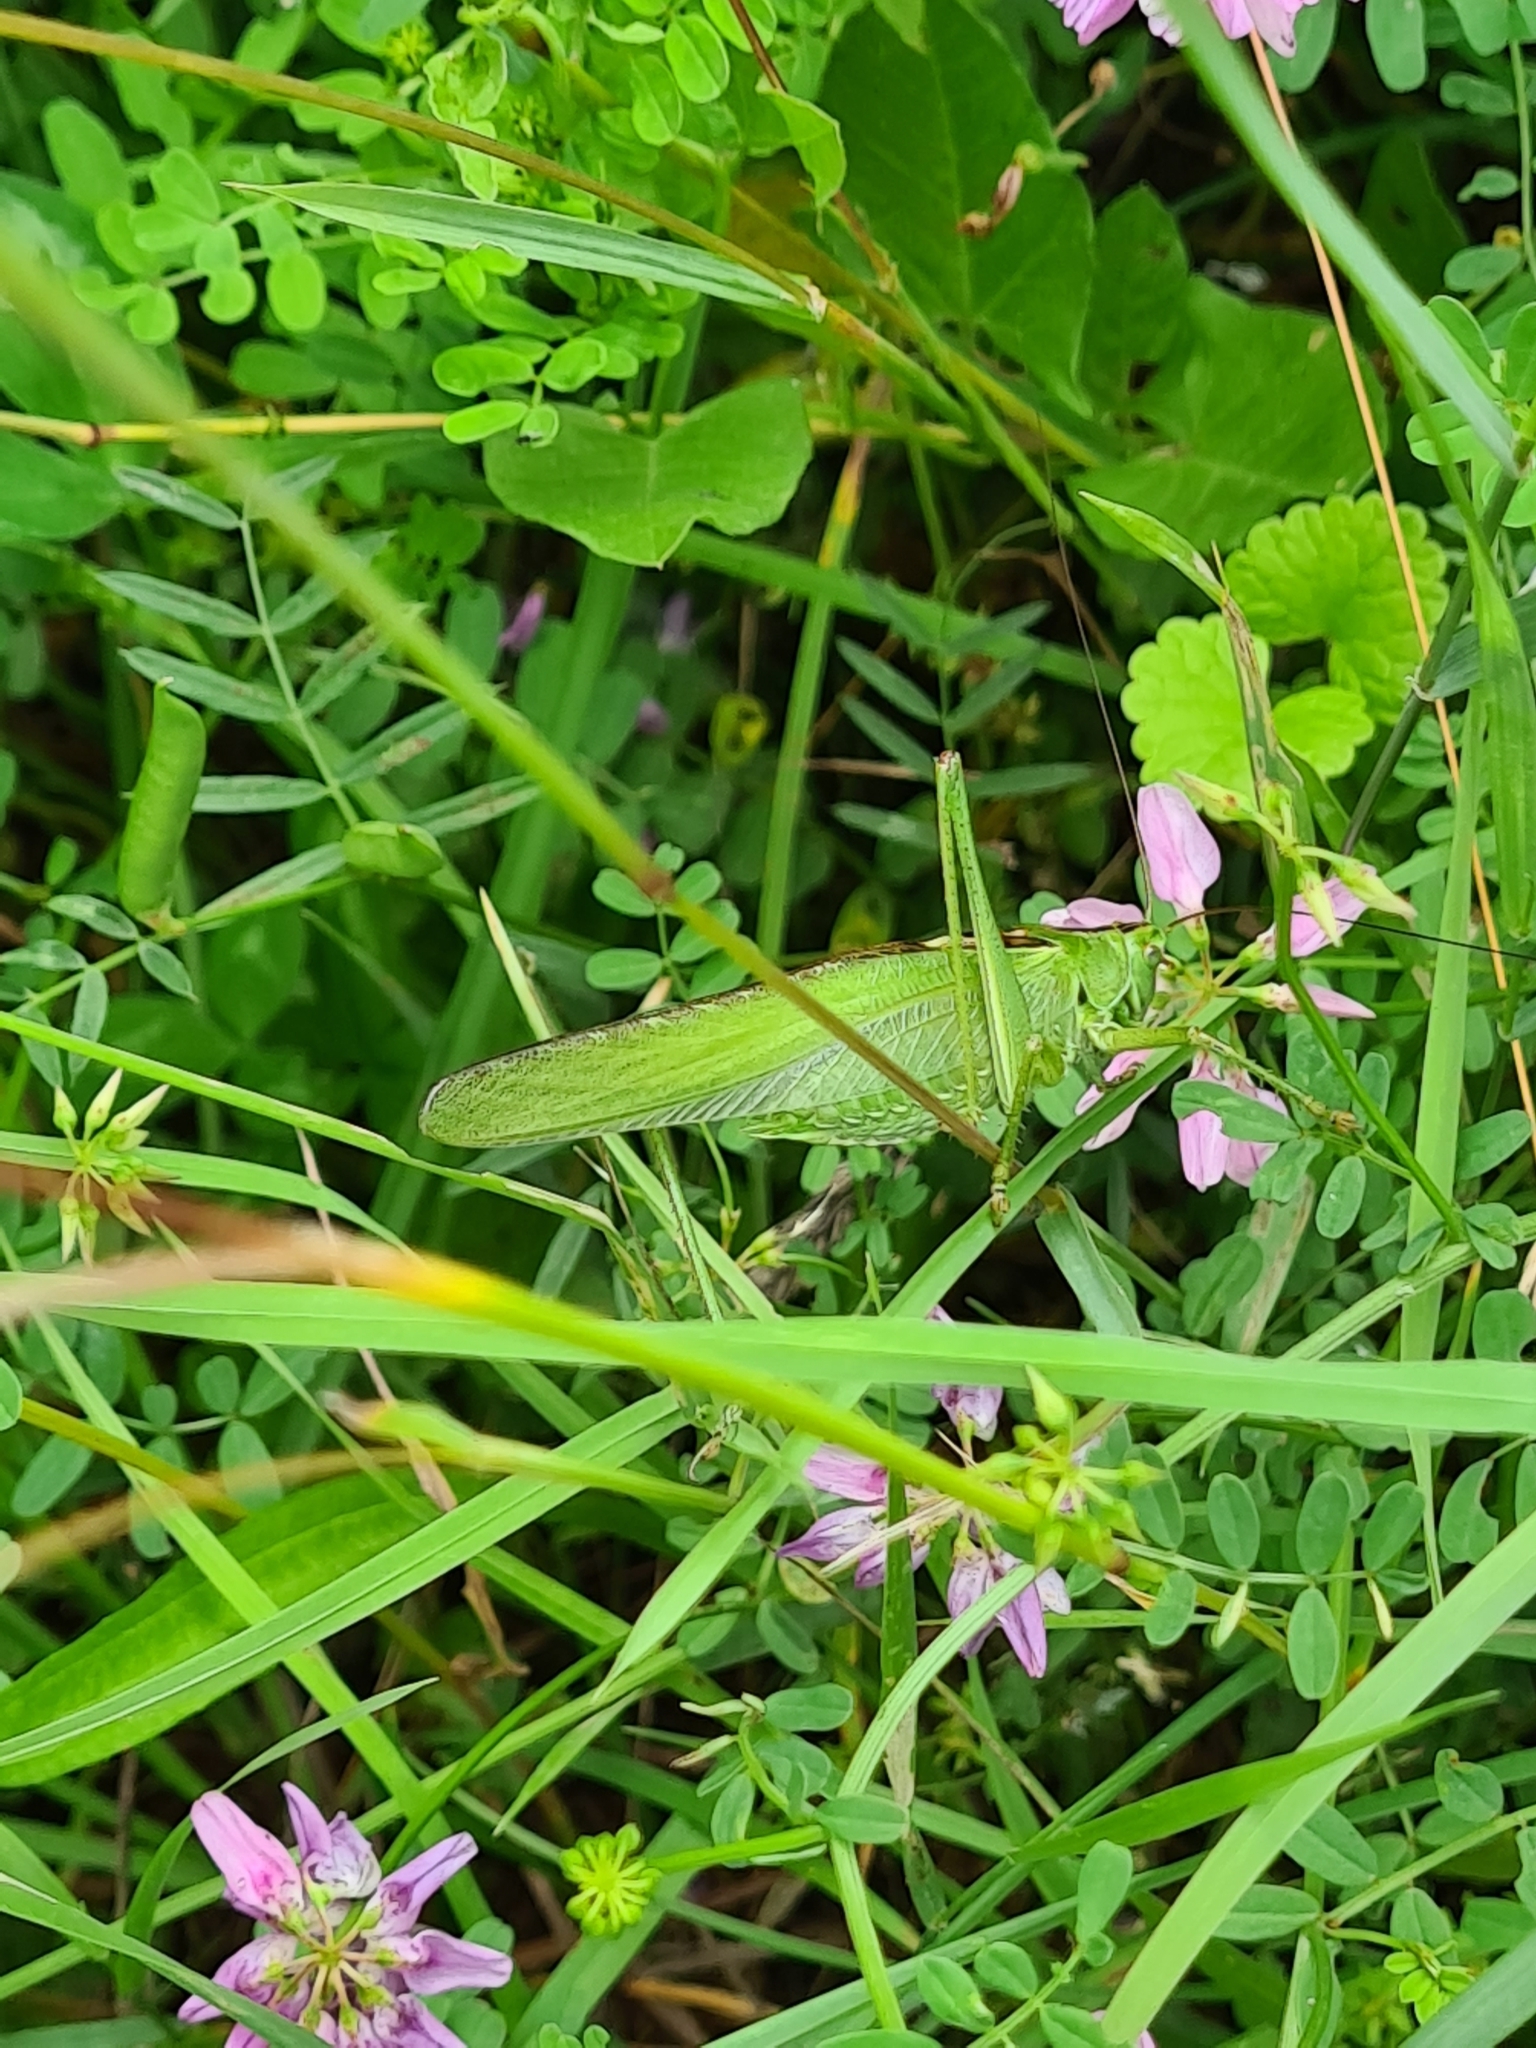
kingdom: Animalia
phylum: Arthropoda
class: Insecta
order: Orthoptera
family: Tettigoniidae
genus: Tettigonia
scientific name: Tettigonia viridissima
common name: Great green bush-cricket
